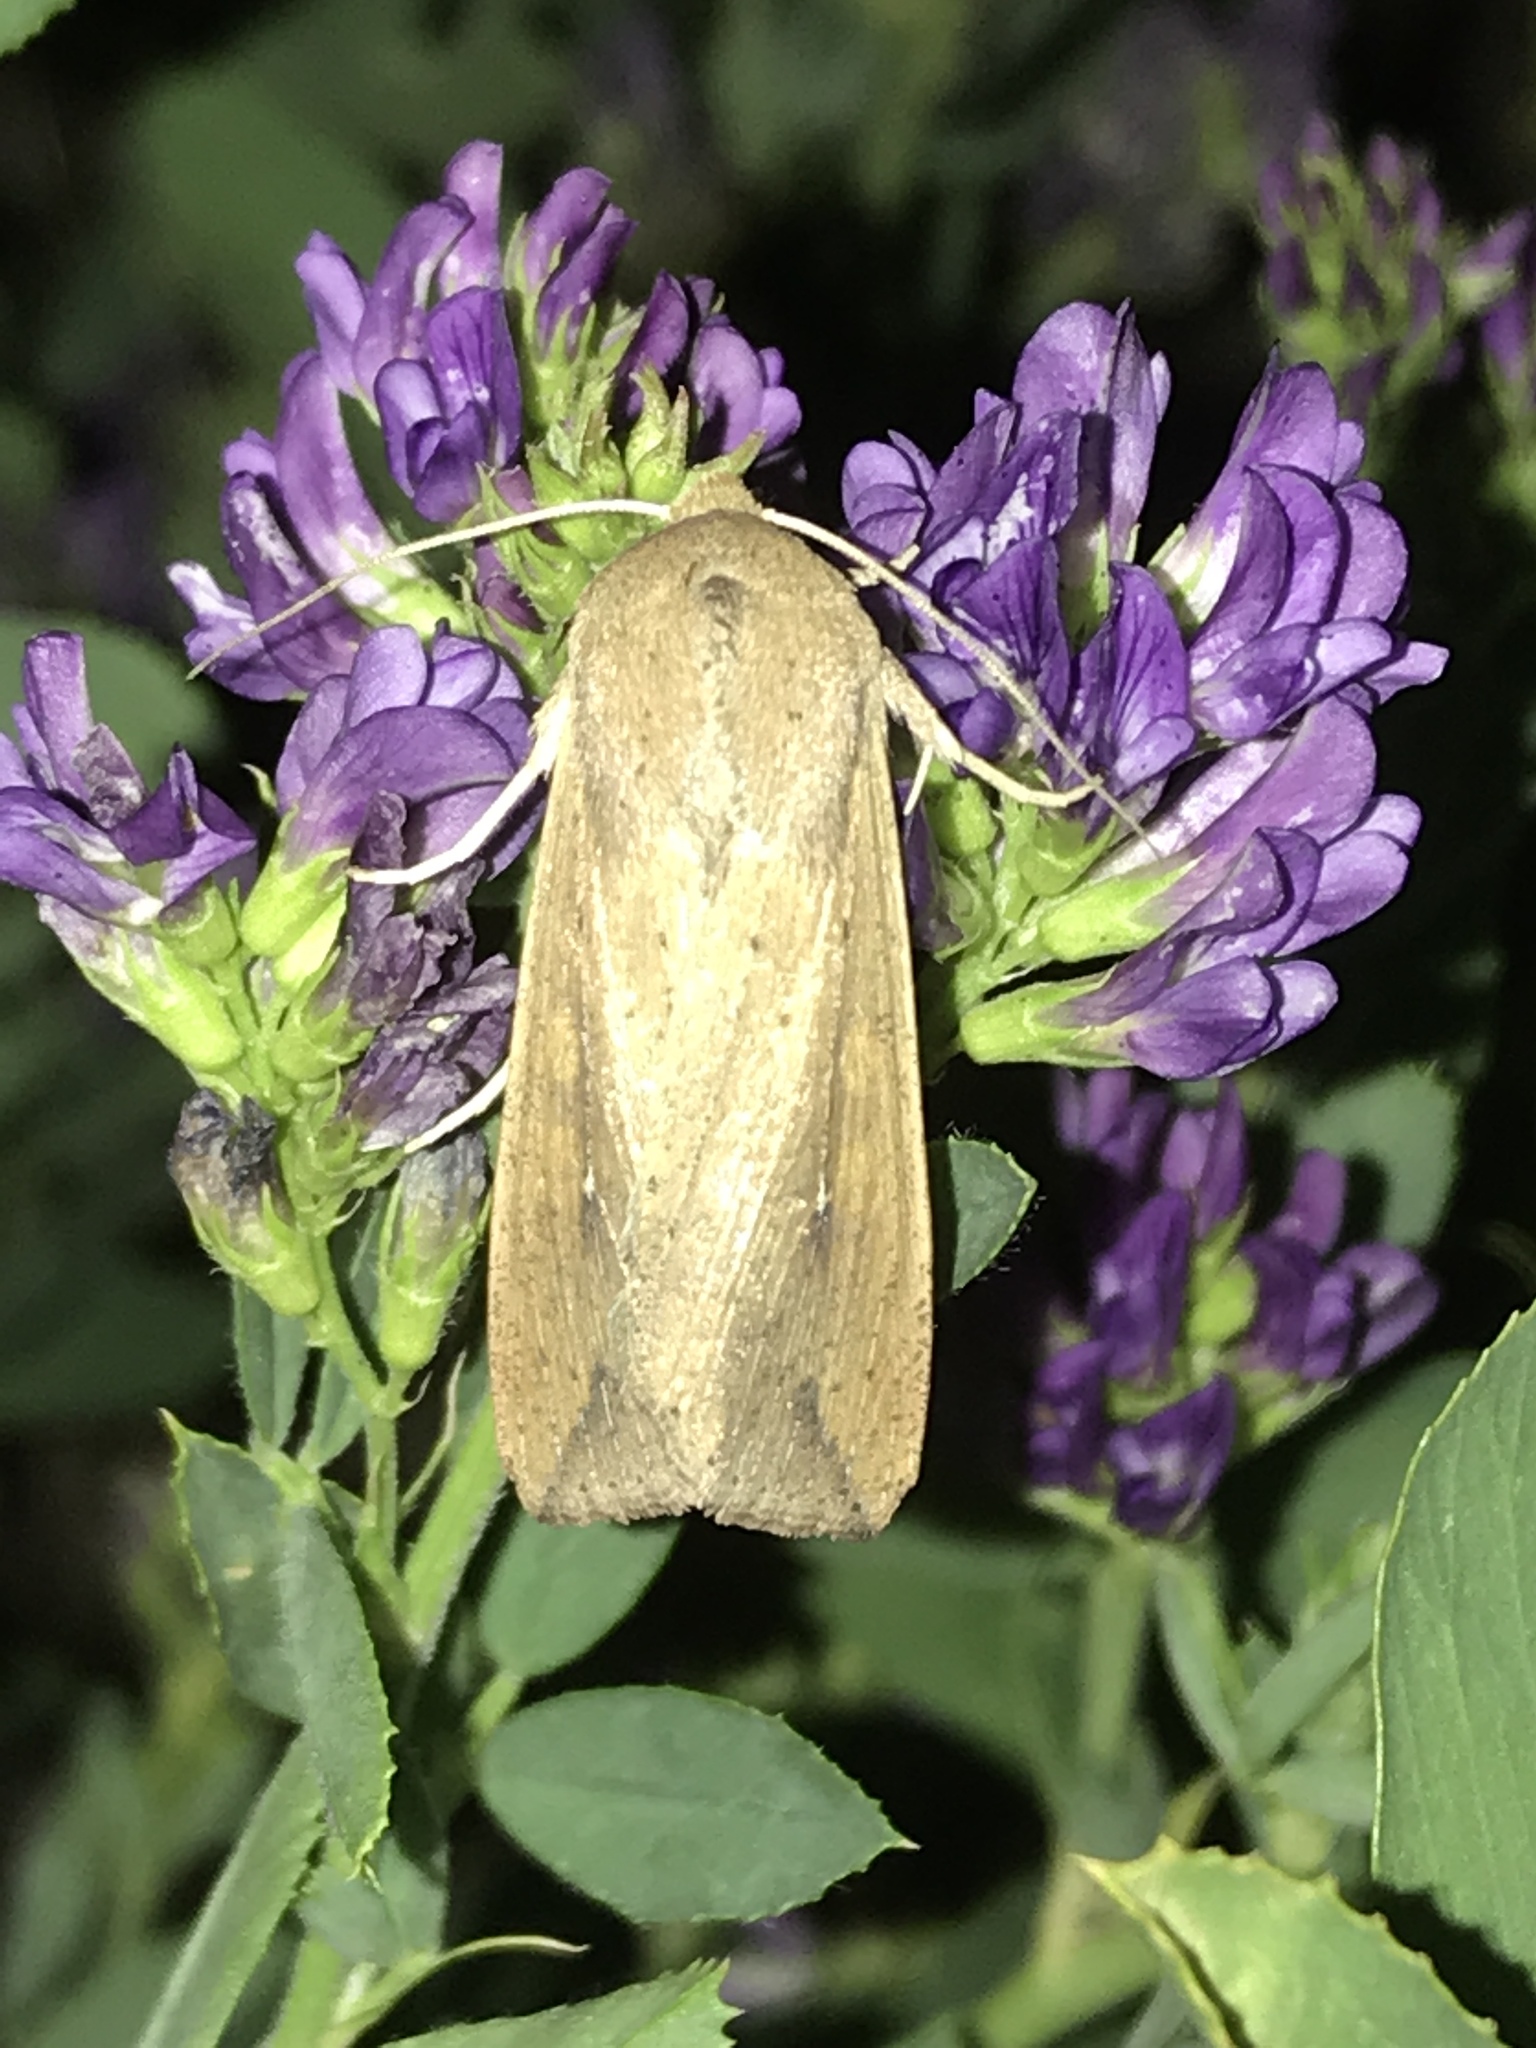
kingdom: Animalia
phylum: Arthropoda
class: Insecta
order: Lepidoptera
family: Noctuidae
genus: Mythimna
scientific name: Mythimna unipuncta
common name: White-speck
